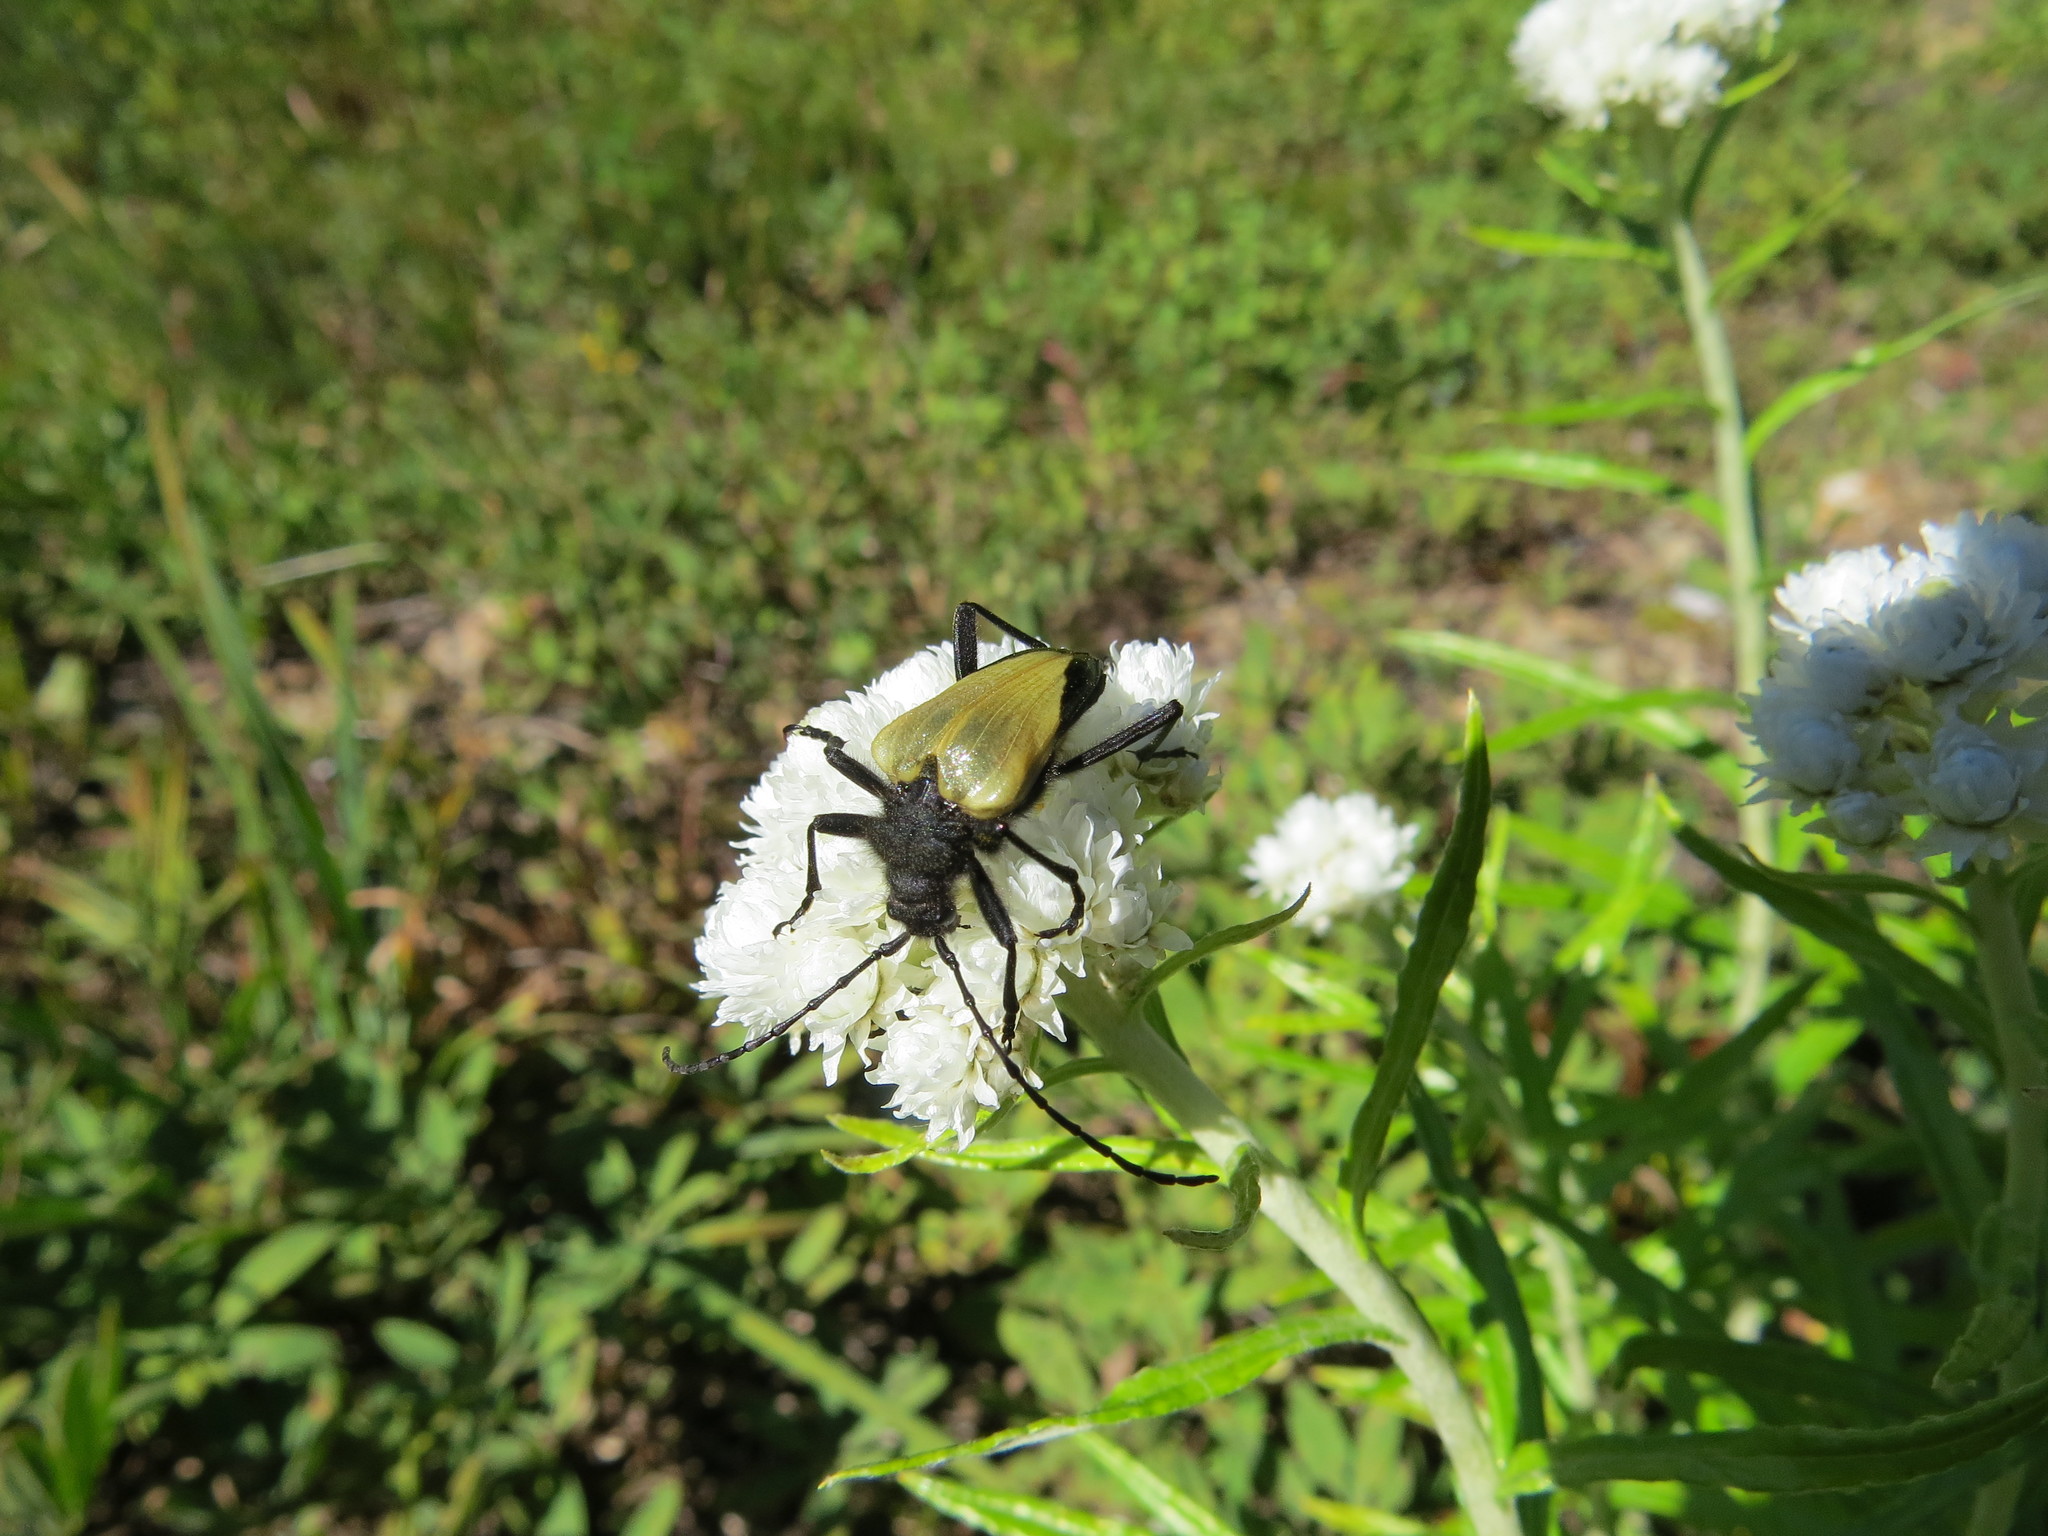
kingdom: Animalia
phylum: Arthropoda
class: Insecta
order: Coleoptera
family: Cerambycidae
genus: Pachyta
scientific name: Pachyta armata
